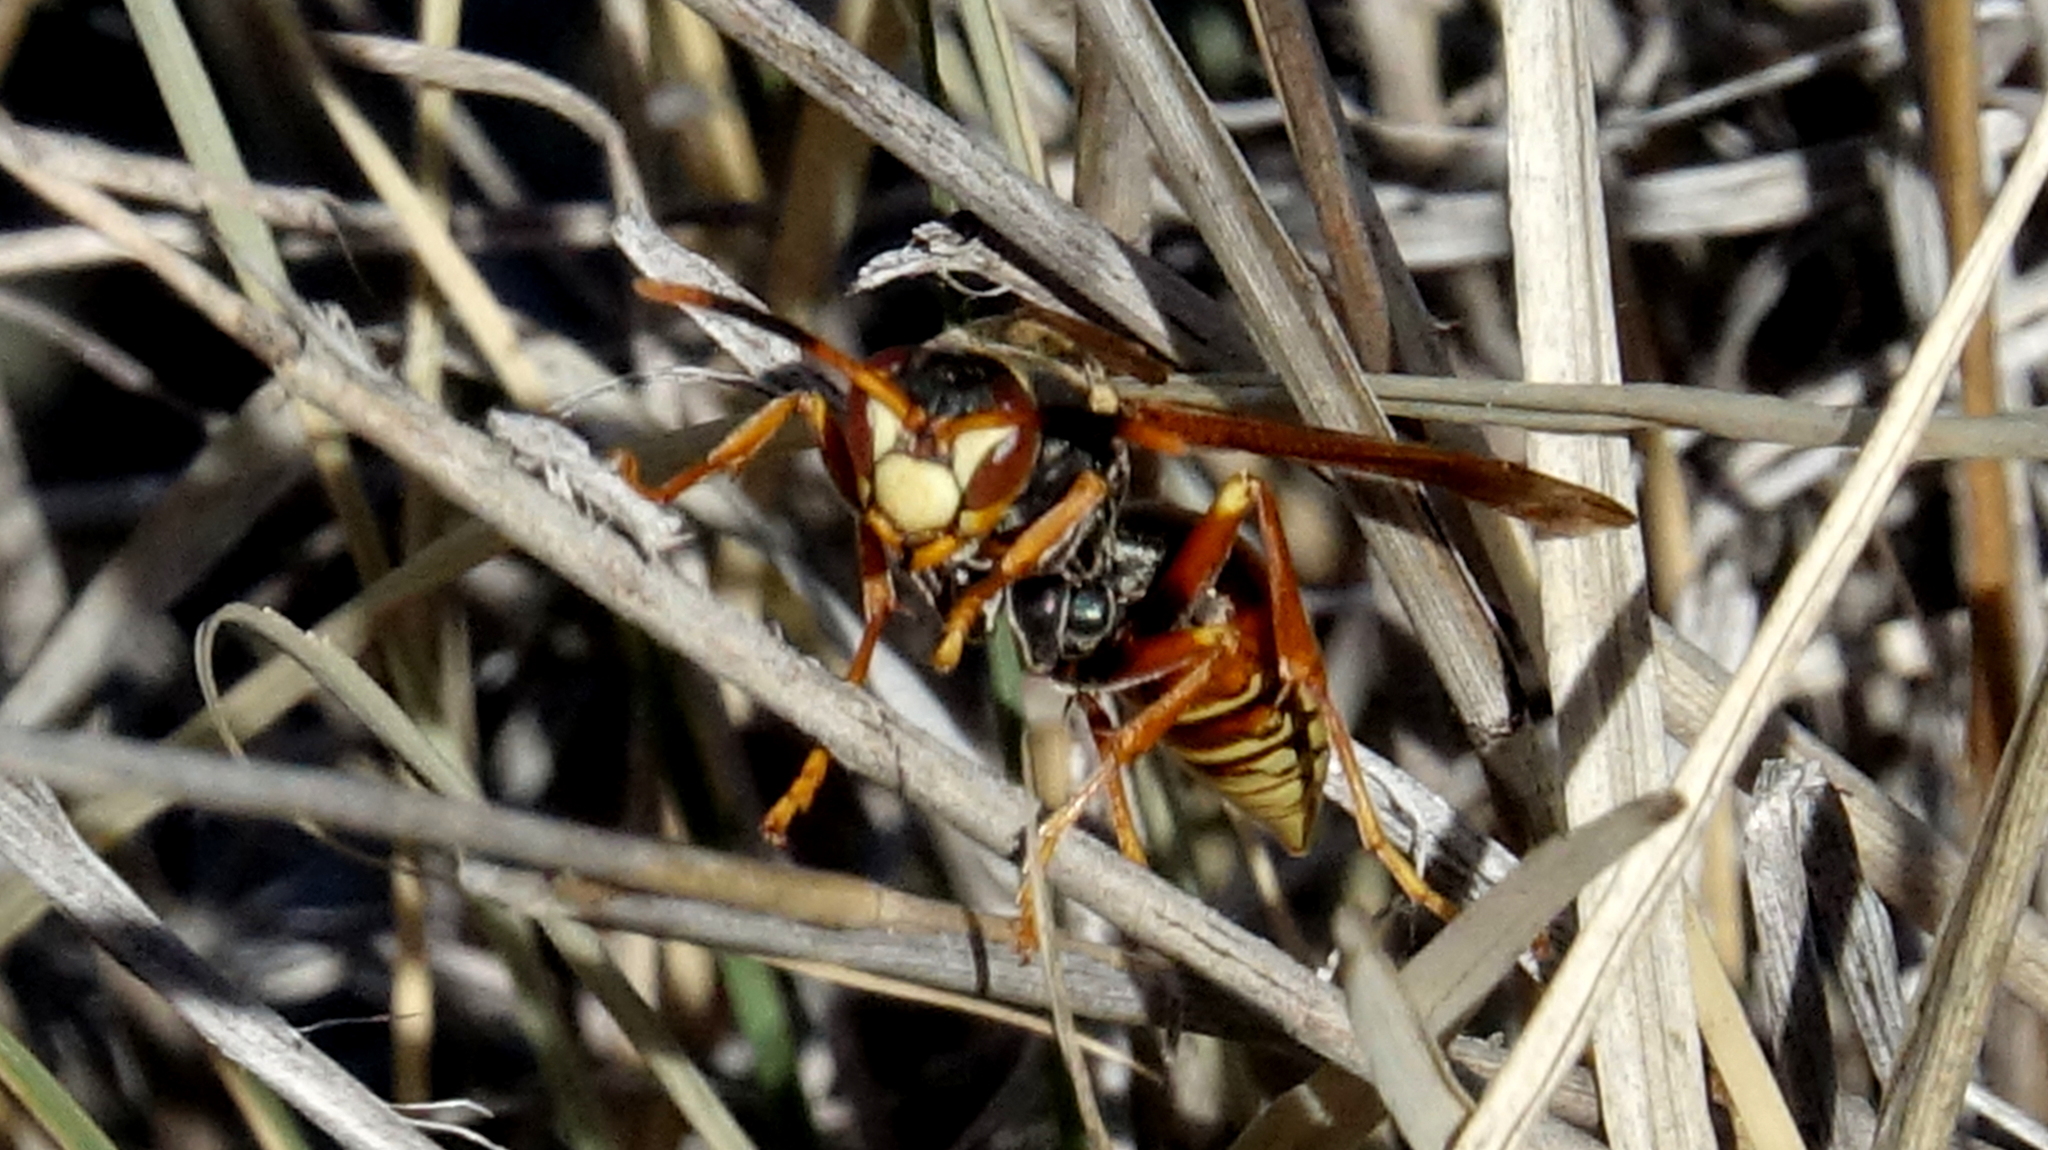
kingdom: Animalia
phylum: Arthropoda
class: Insecta
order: Hymenoptera
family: Eumenidae
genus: Polistes
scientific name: Polistes buyssoni
